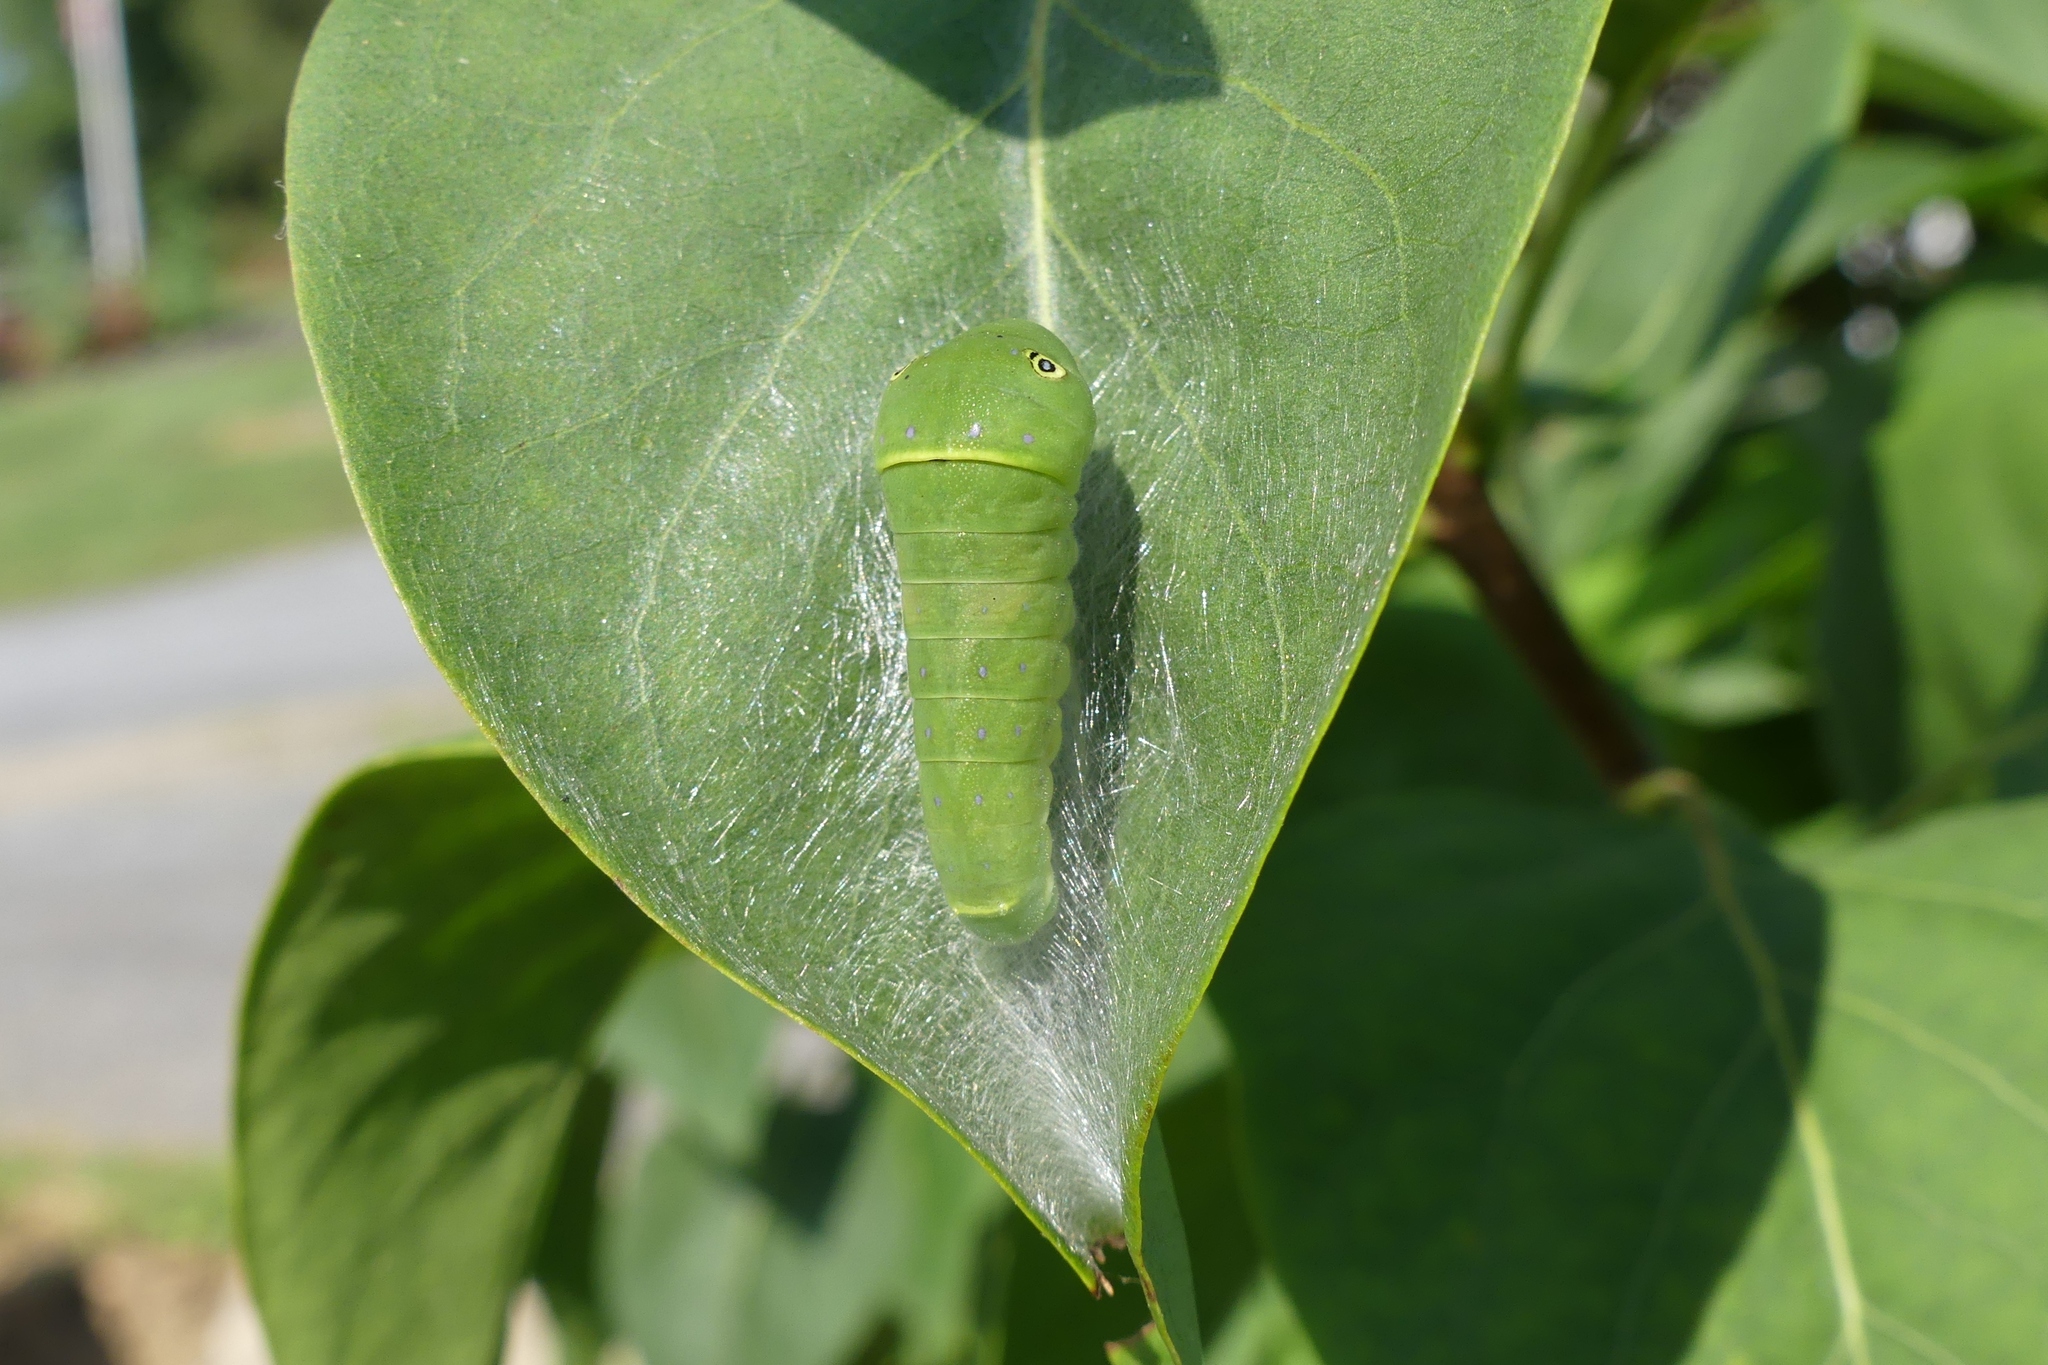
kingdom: Animalia
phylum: Arthropoda
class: Insecta
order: Lepidoptera
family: Papilionidae
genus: Papilio
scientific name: Papilio glaucus
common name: Tiger swallowtail
